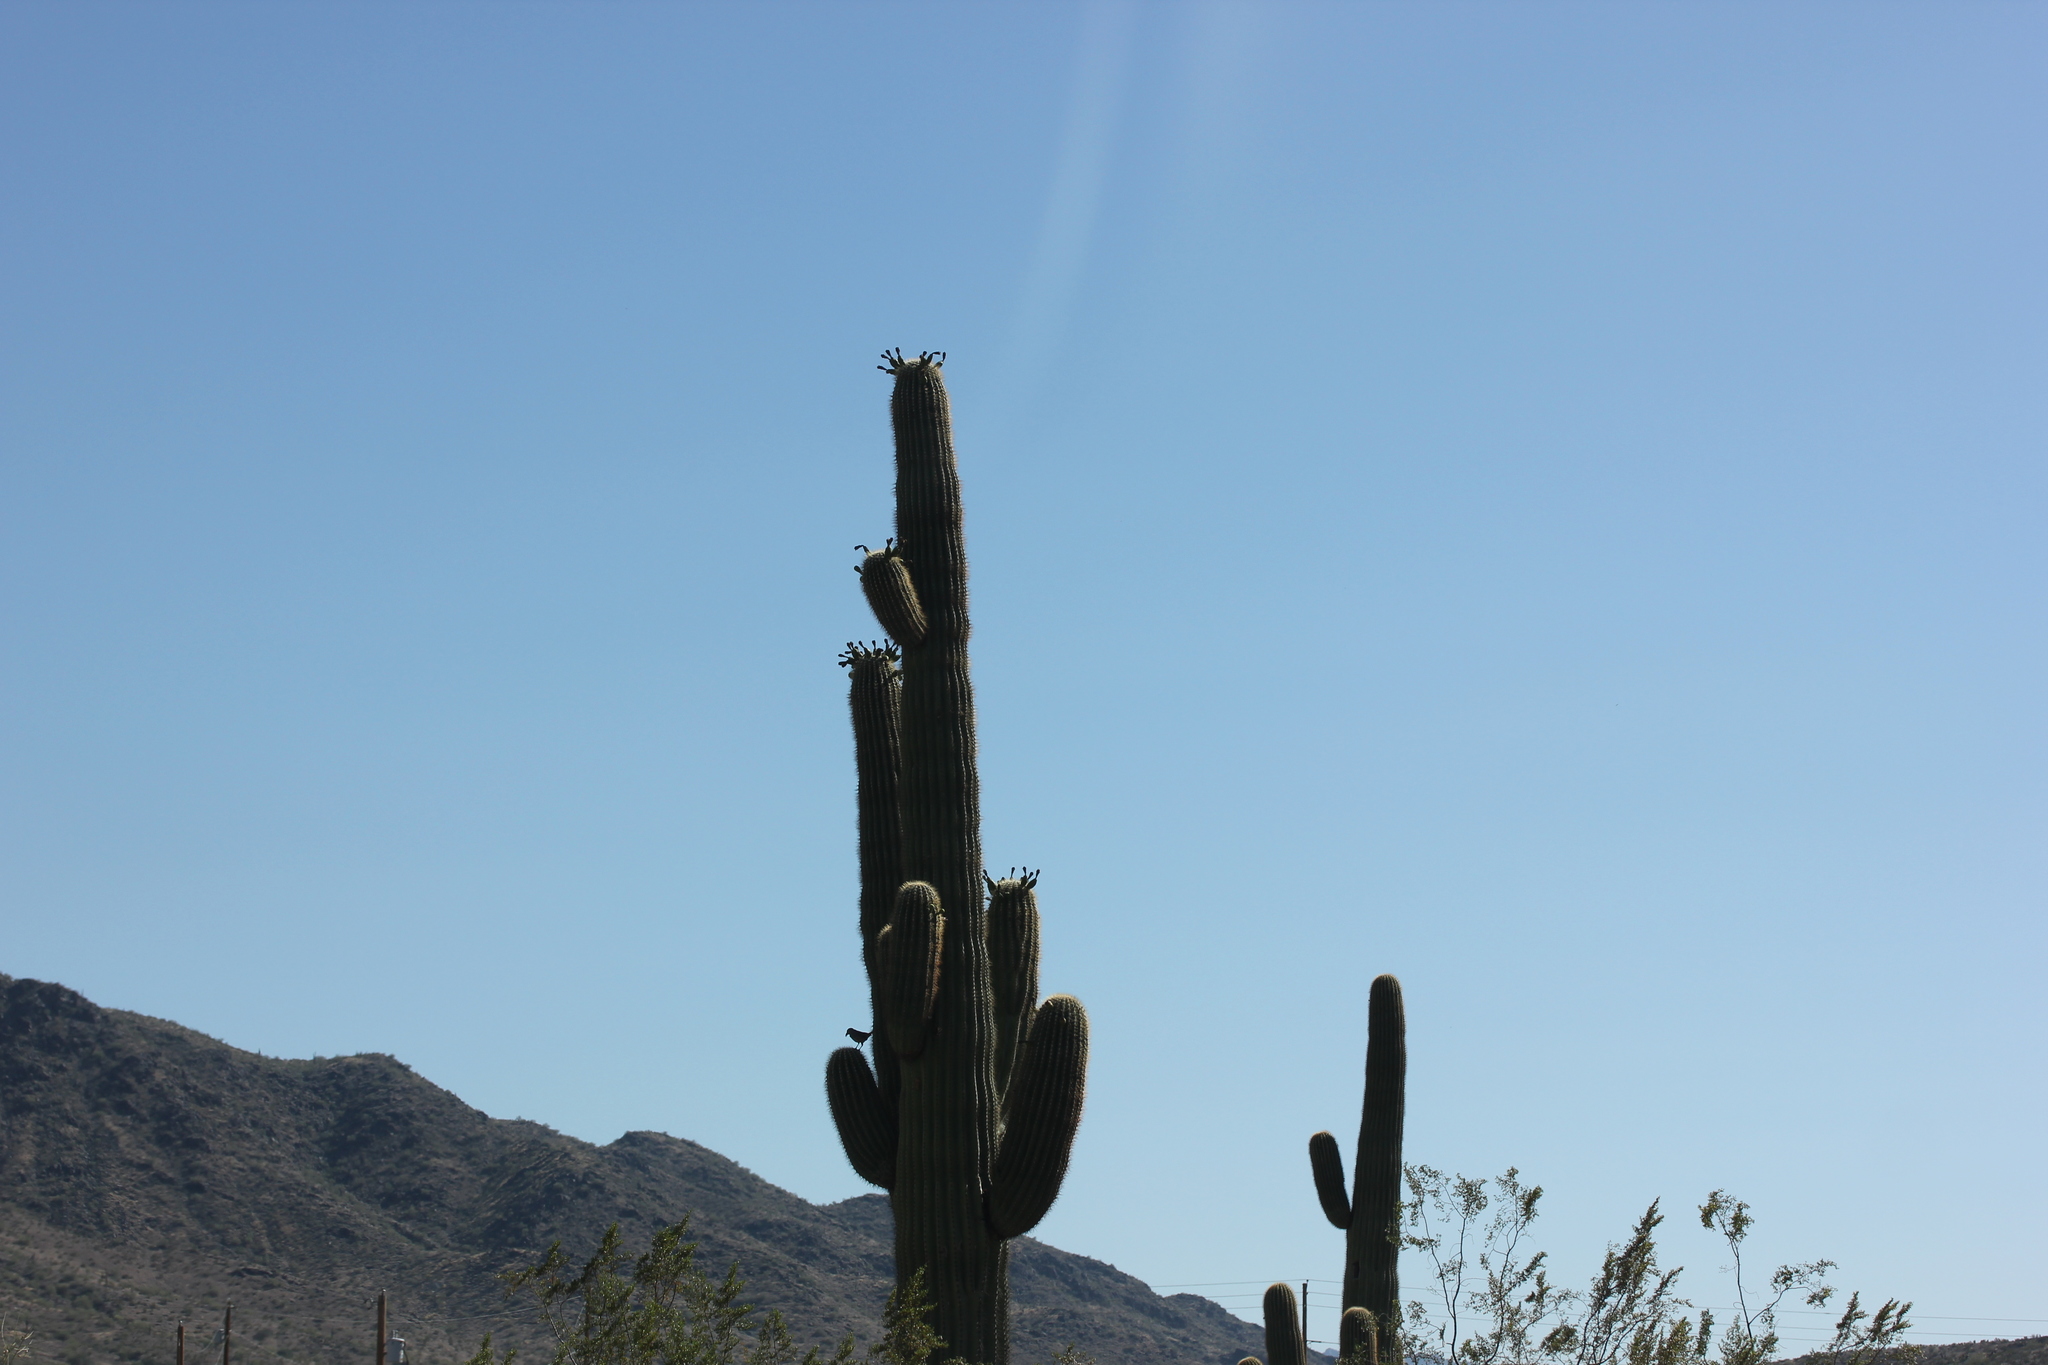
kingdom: Plantae
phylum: Tracheophyta
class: Magnoliopsida
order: Caryophyllales
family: Cactaceae
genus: Carnegiea
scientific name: Carnegiea gigantea
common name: Saguaro
